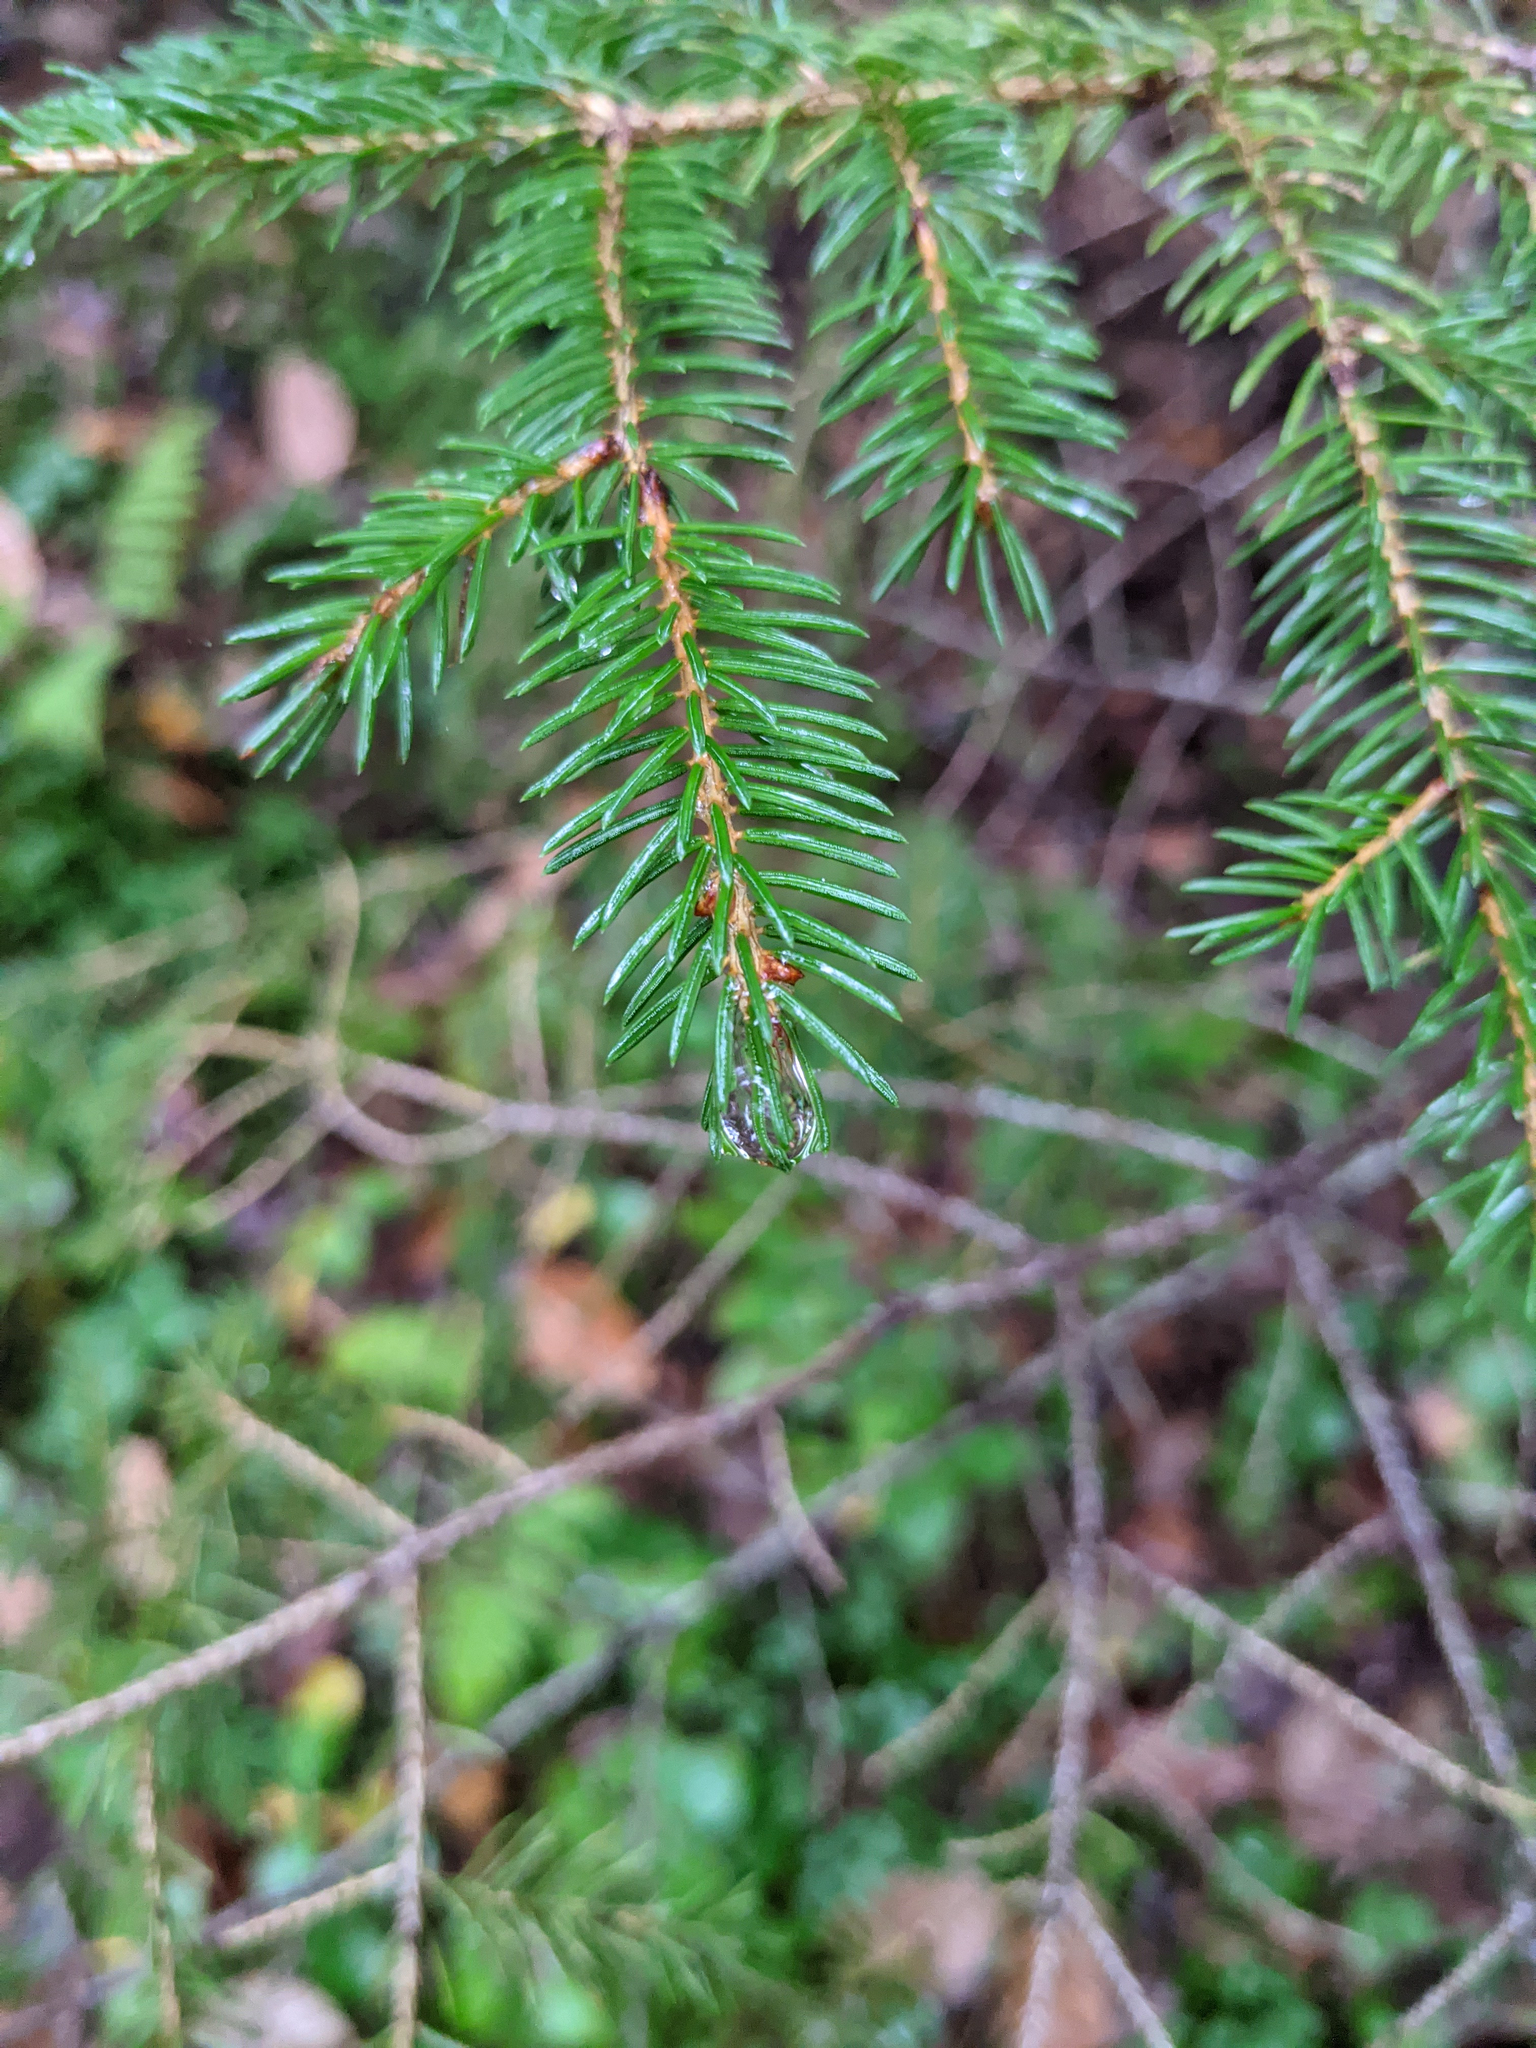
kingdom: Plantae
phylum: Tracheophyta
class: Pinopsida
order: Pinales
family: Pinaceae
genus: Picea
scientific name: Picea rubens
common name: Red spruce
